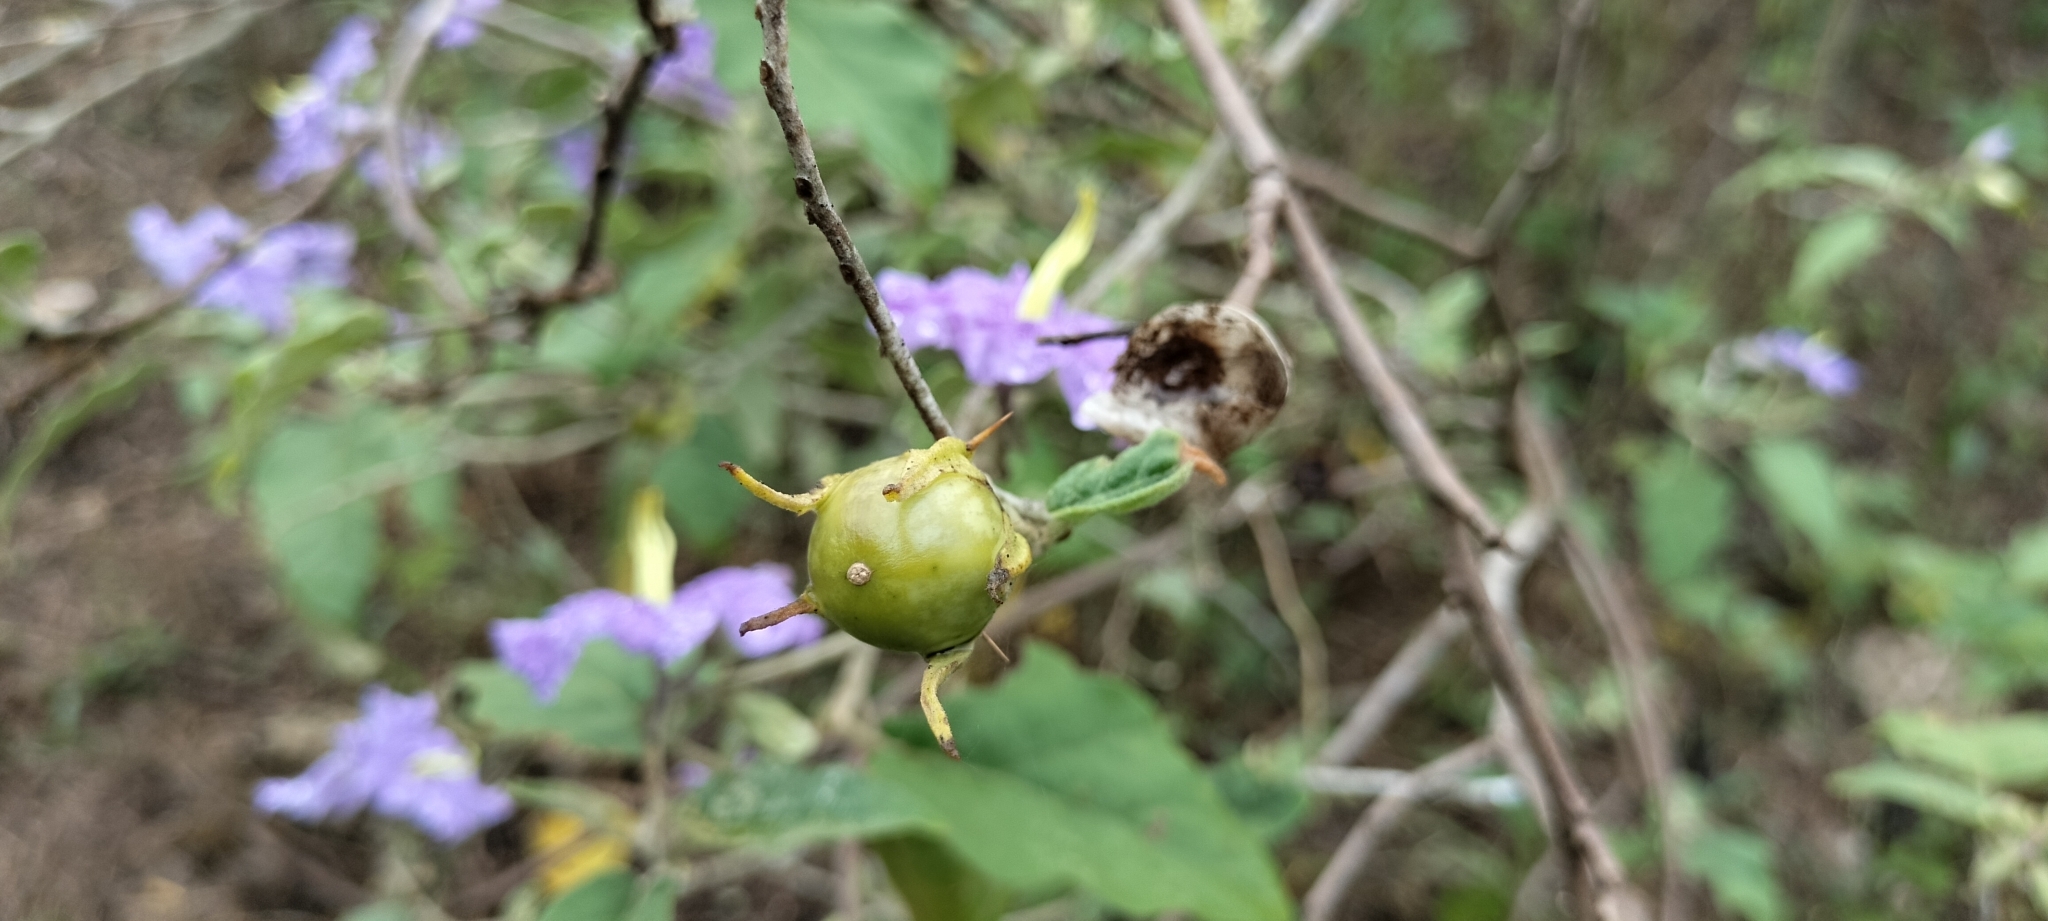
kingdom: Plantae
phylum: Tracheophyta
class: Magnoliopsida
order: Solanales
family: Solanaceae
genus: Solanum
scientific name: Solanum houstonii
